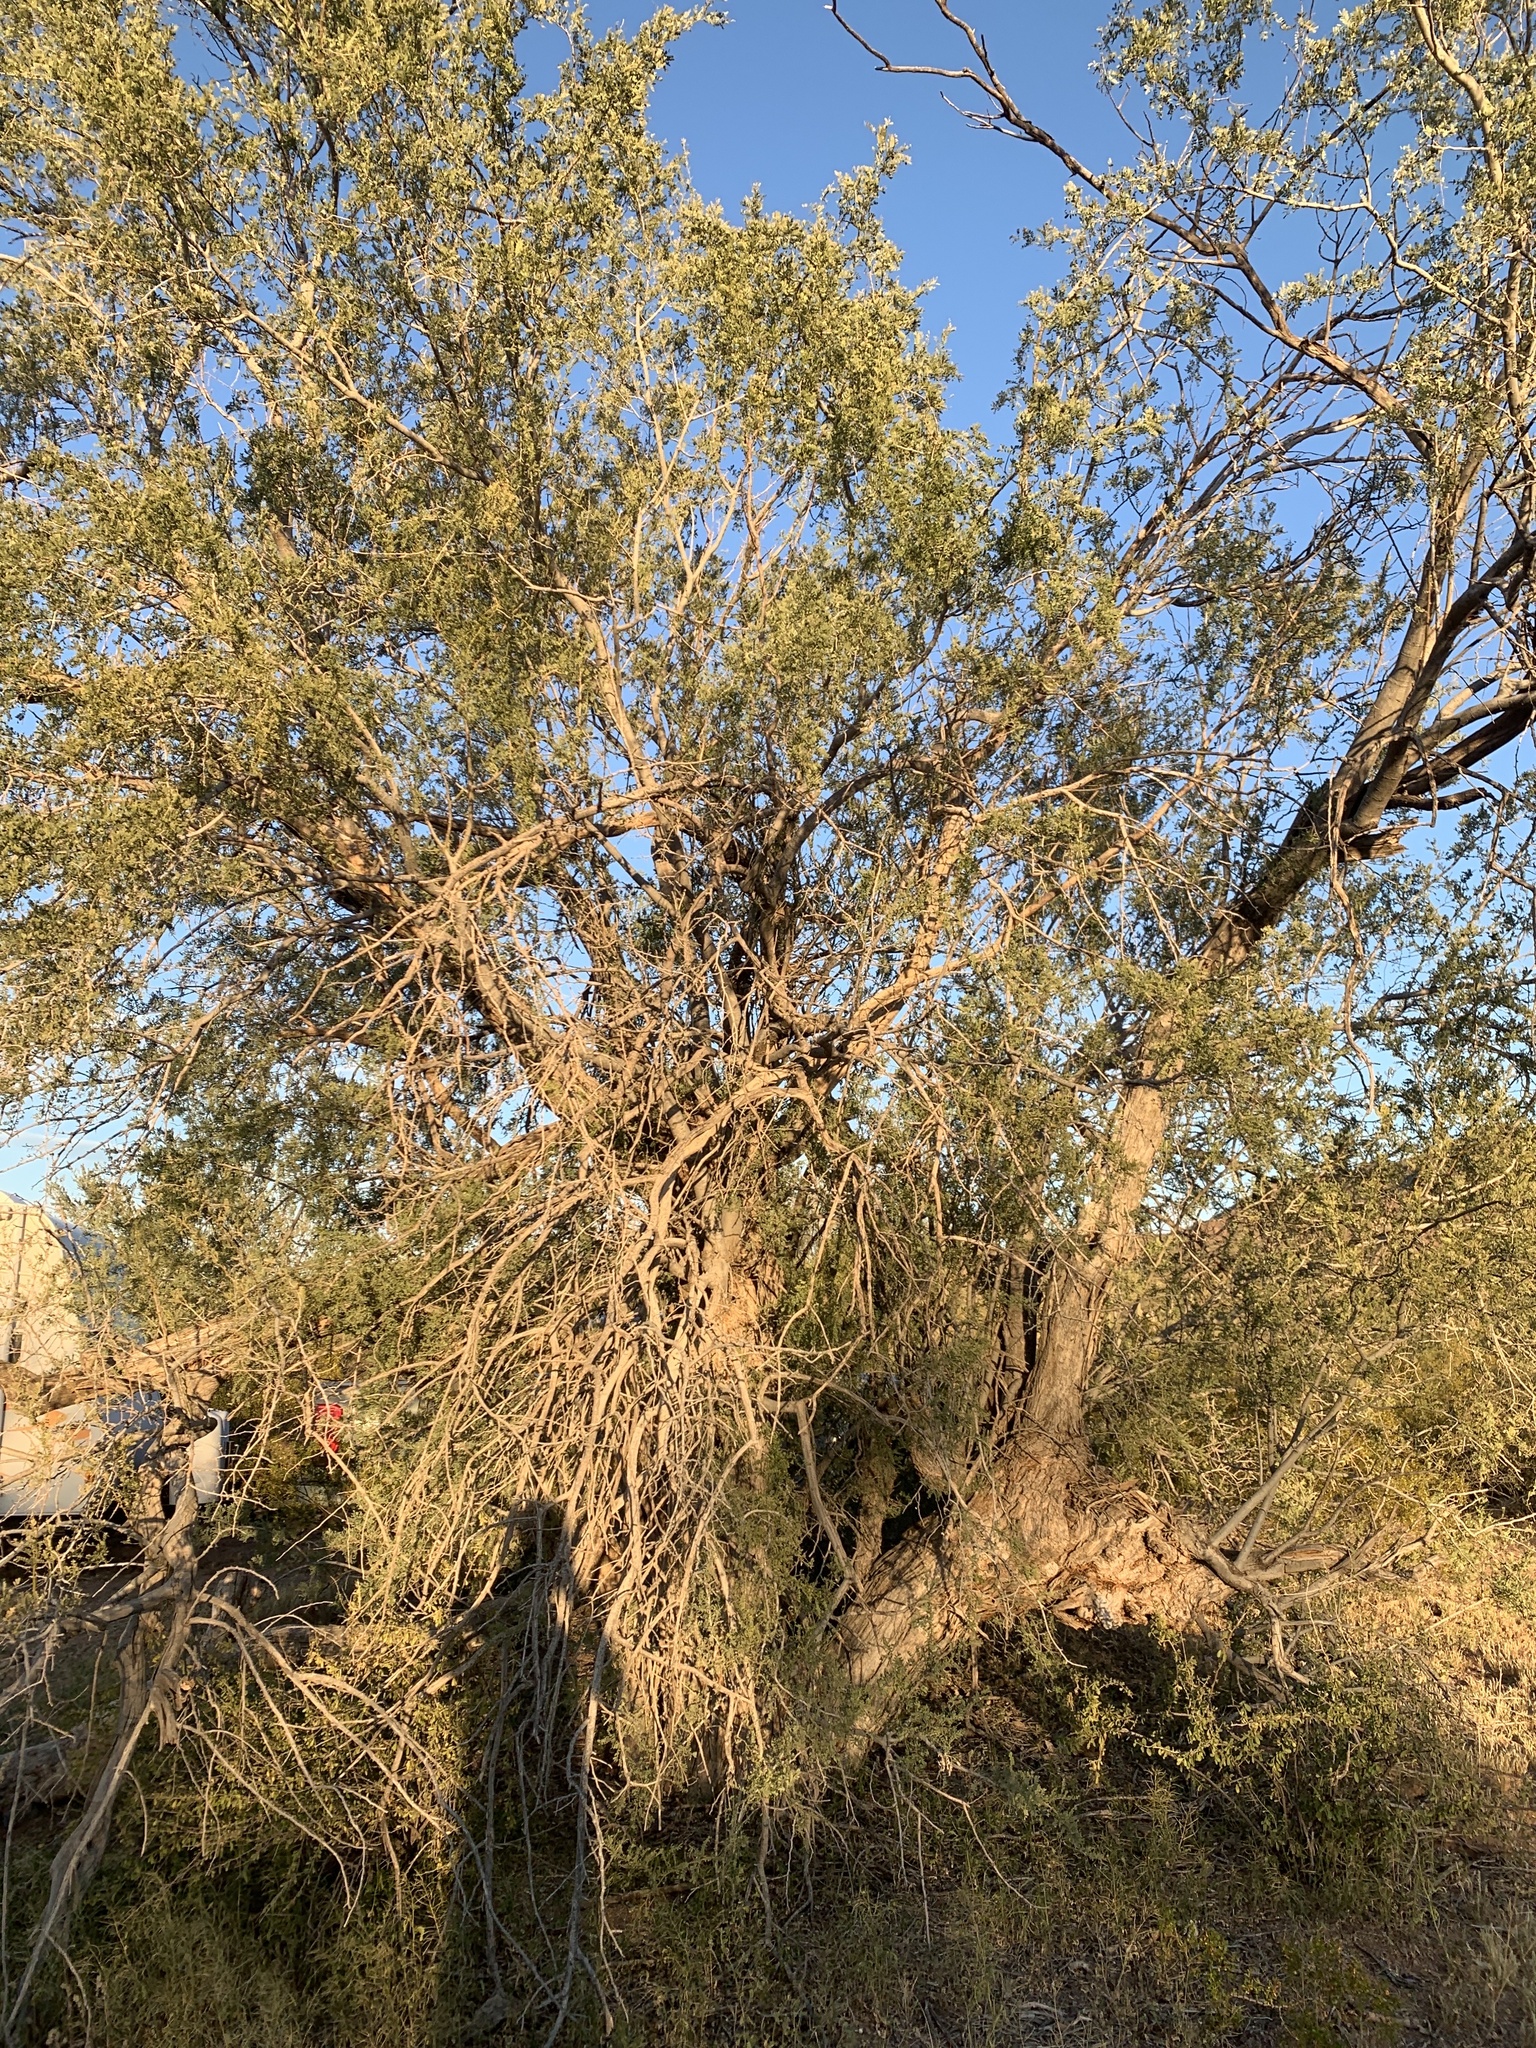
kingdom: Plantae
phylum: Tracheophyta
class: Magnoliopsida
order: Fabales
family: Fabaceae
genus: Olneya
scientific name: Olneya tesota
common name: Desert ironwood
